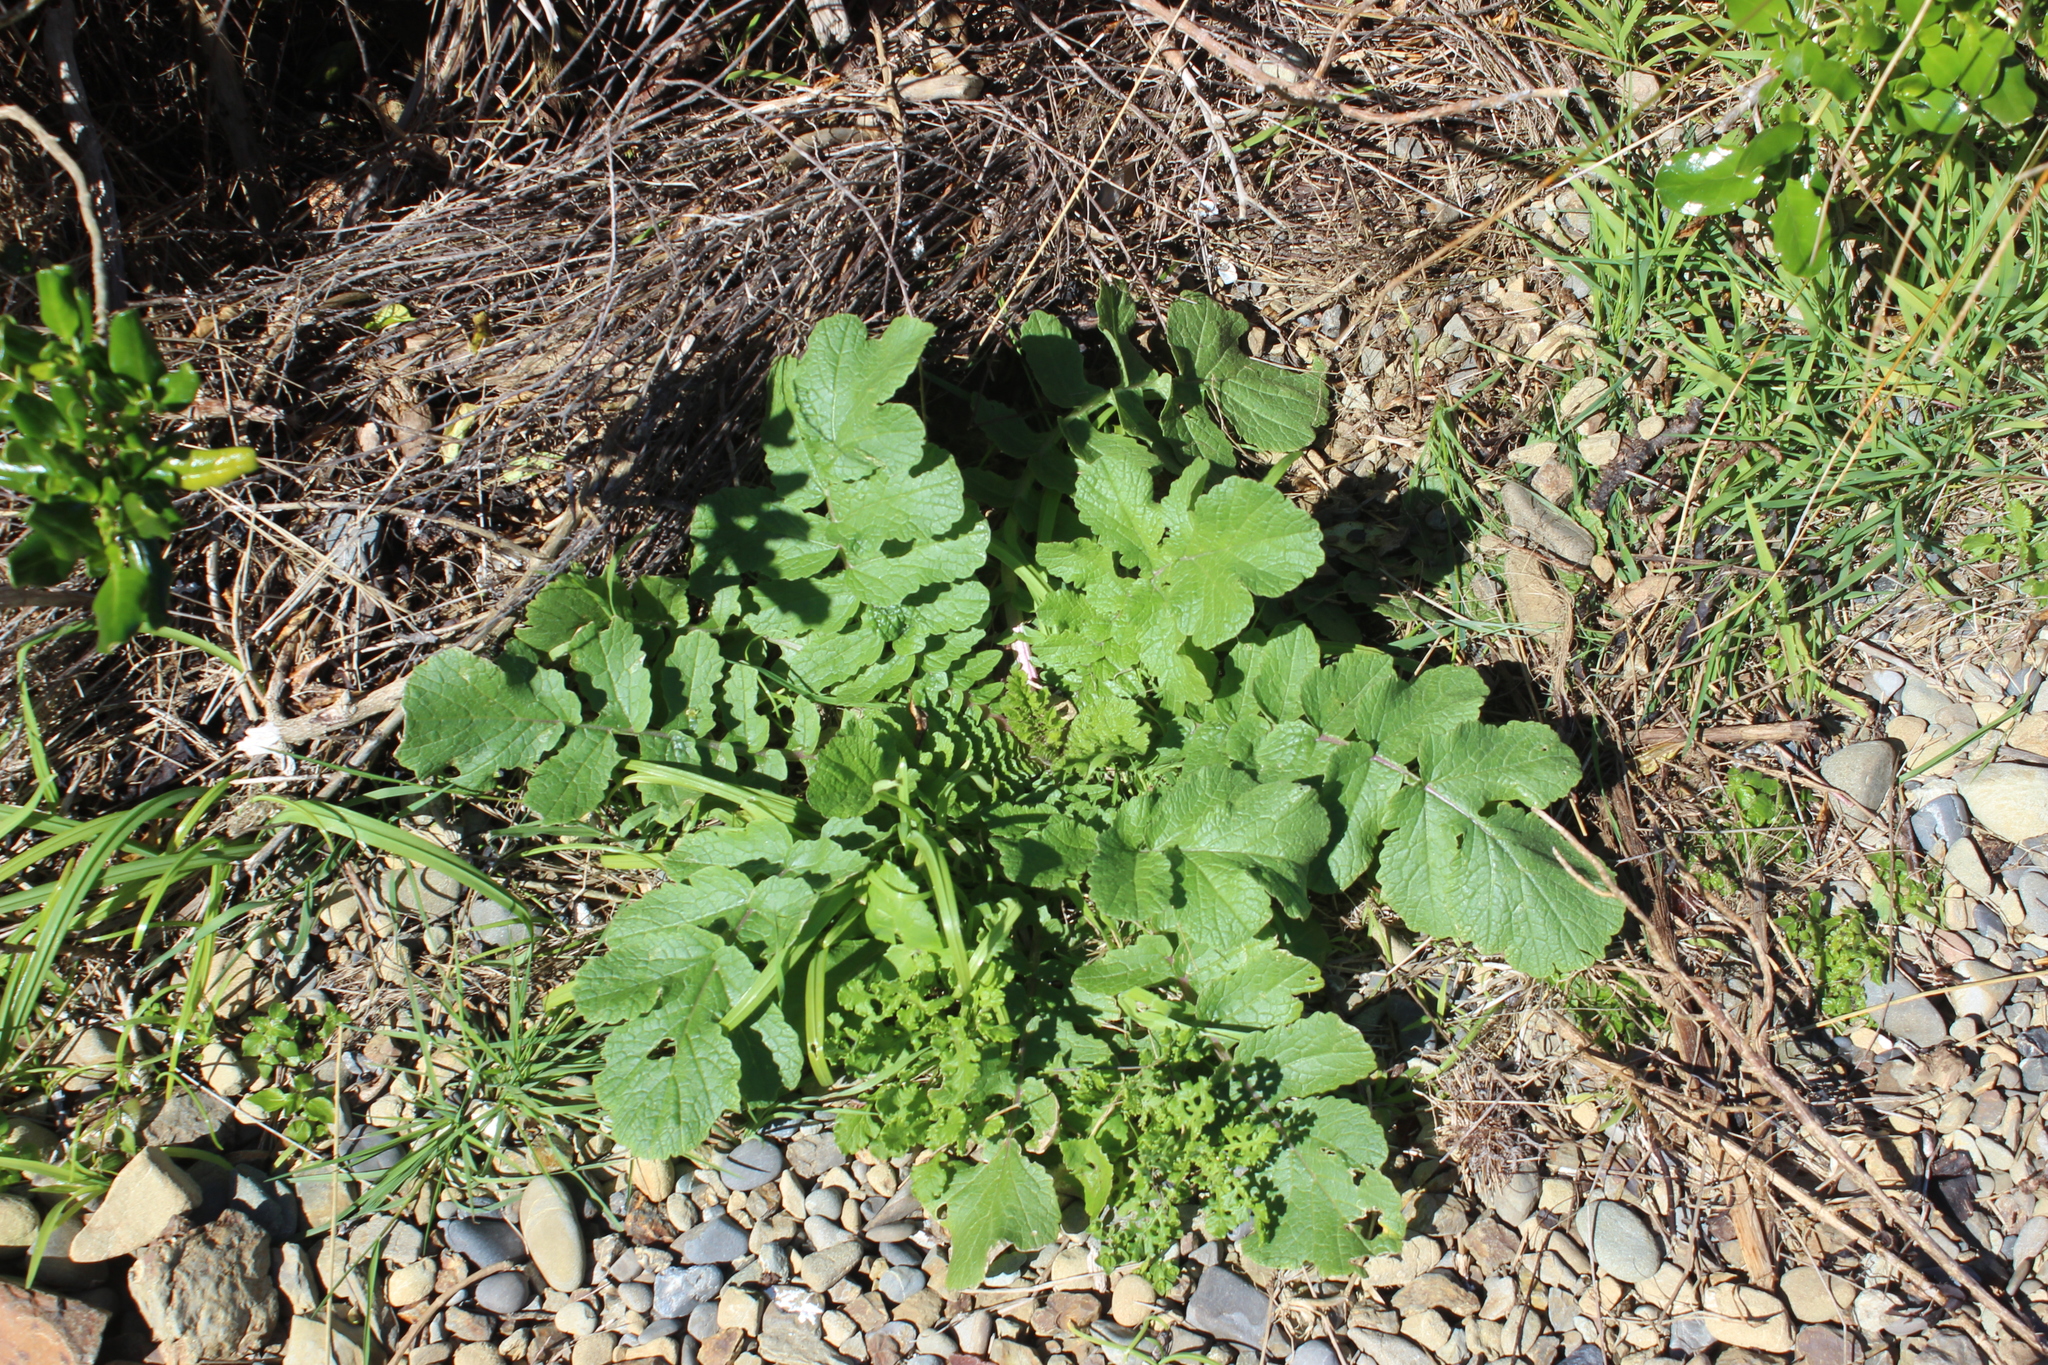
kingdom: Plantae
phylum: Tracheophyta
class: Magnoliopsida
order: Brassicales
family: Brassicaceae
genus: Raphanus
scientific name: Raphanus raphanistrum
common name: Wild radish
